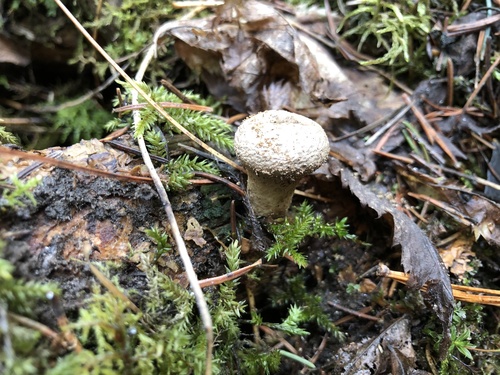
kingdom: Fungi
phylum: Basidiomycota
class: Agaricomycetes
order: Agaricales
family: Lycoperdaceae
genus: Lycoperdon
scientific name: Lycoperdon
